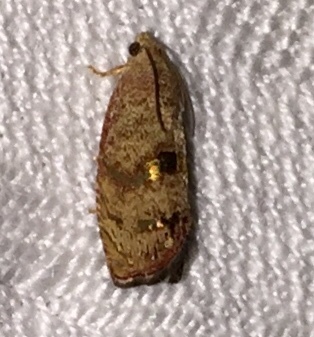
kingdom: Animalia
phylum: Arthropoda
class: Insecta
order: Lepidoptera
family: Tortricidae
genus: Cydia
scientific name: Cydia latiferreana
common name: Filbertworm moth
